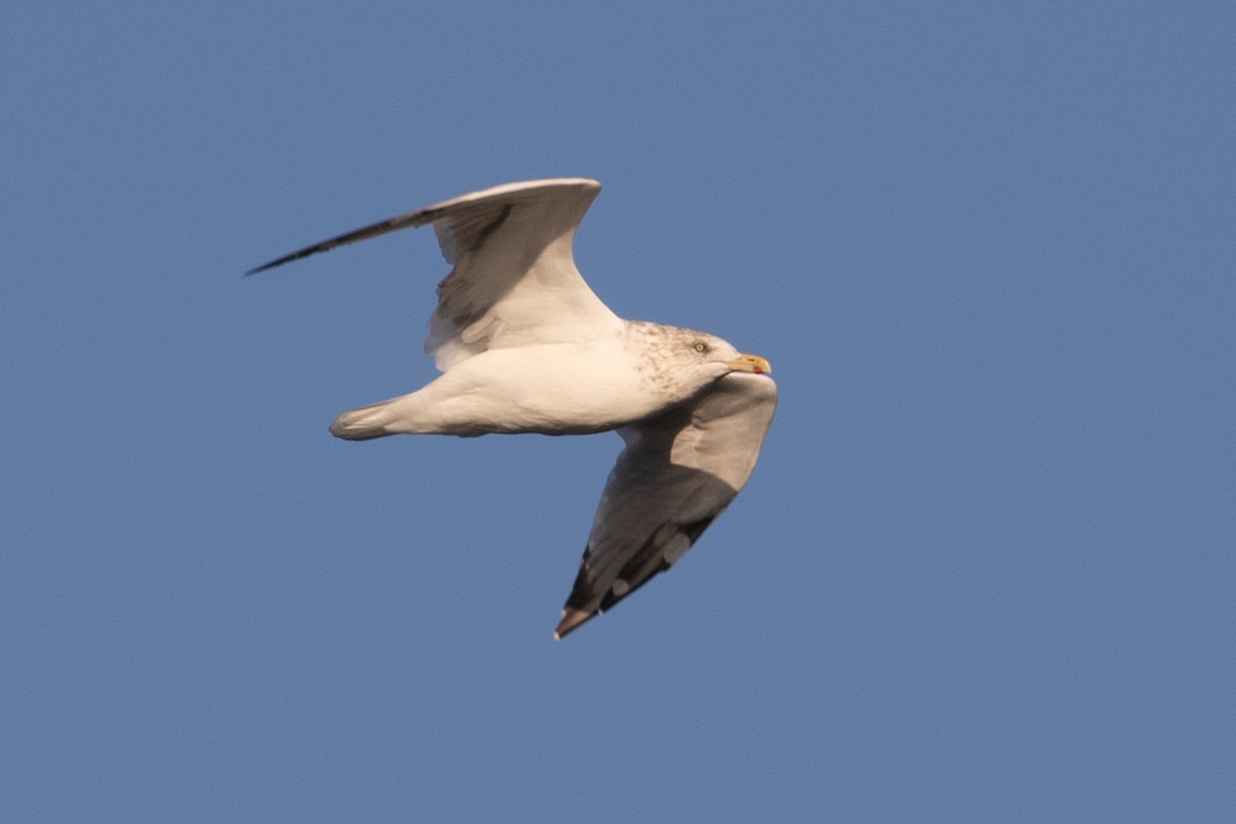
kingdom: Animalia
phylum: Chordata
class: Aves
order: Charadriiformes
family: Laridae
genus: Larus
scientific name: Larus argentatus
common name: Herring gull
